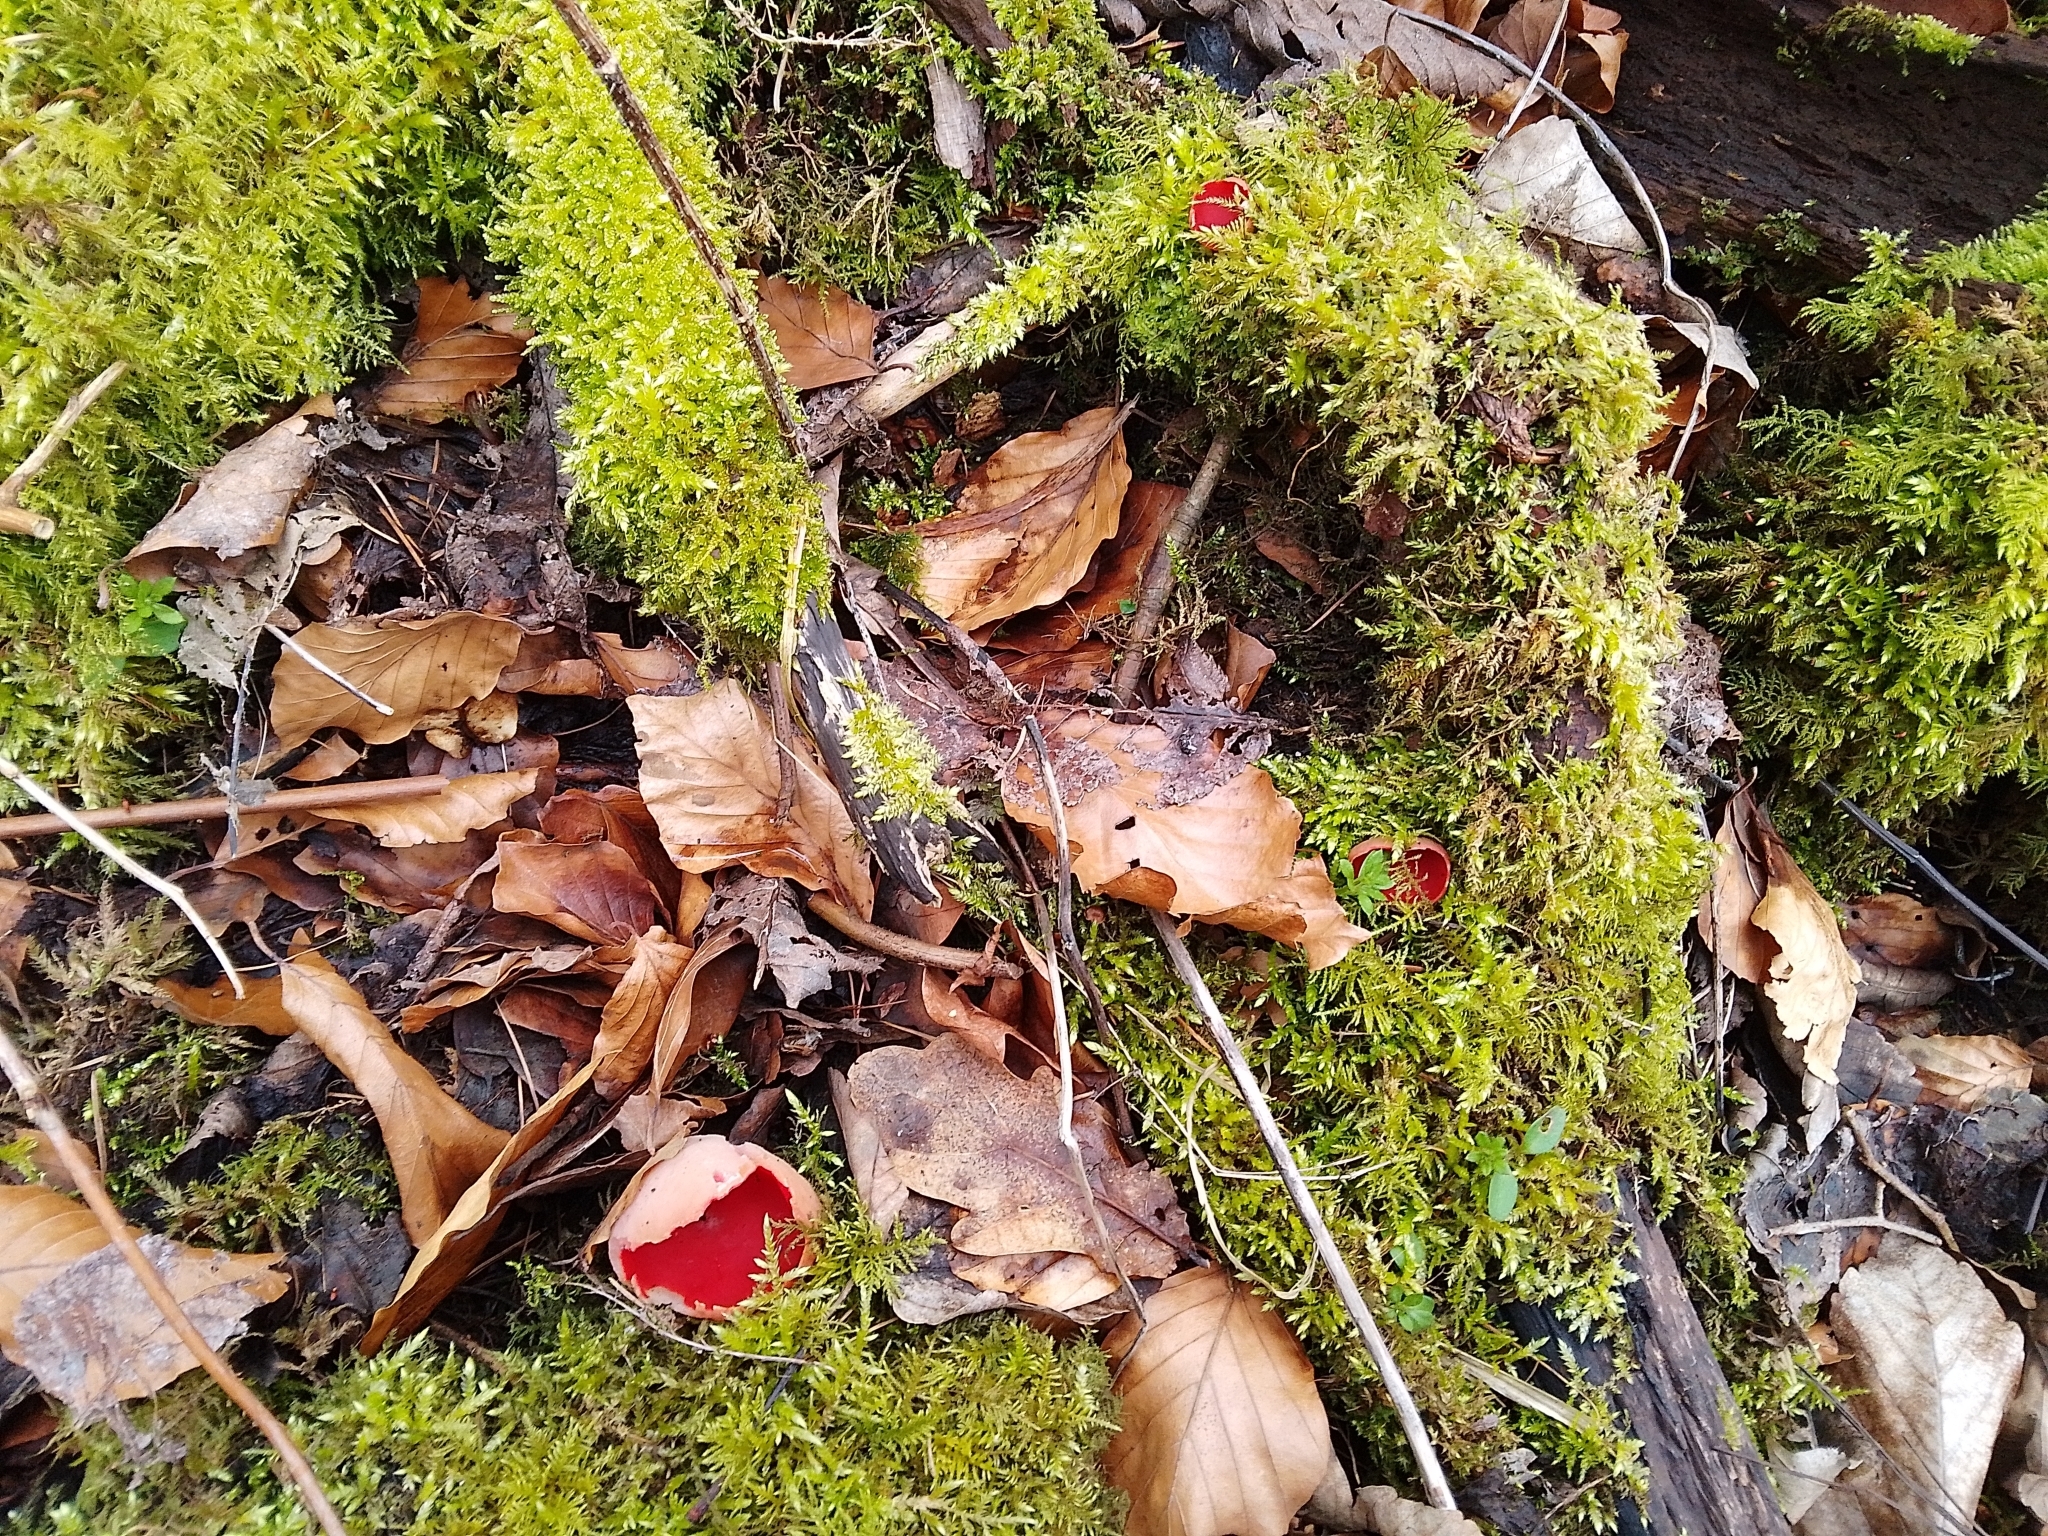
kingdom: Fungi
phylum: Ascomycota
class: Pezizomycetes
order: Pezizales
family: Sarcoscyphaceae
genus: Sarcoscypha
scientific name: Sarcoscypha
